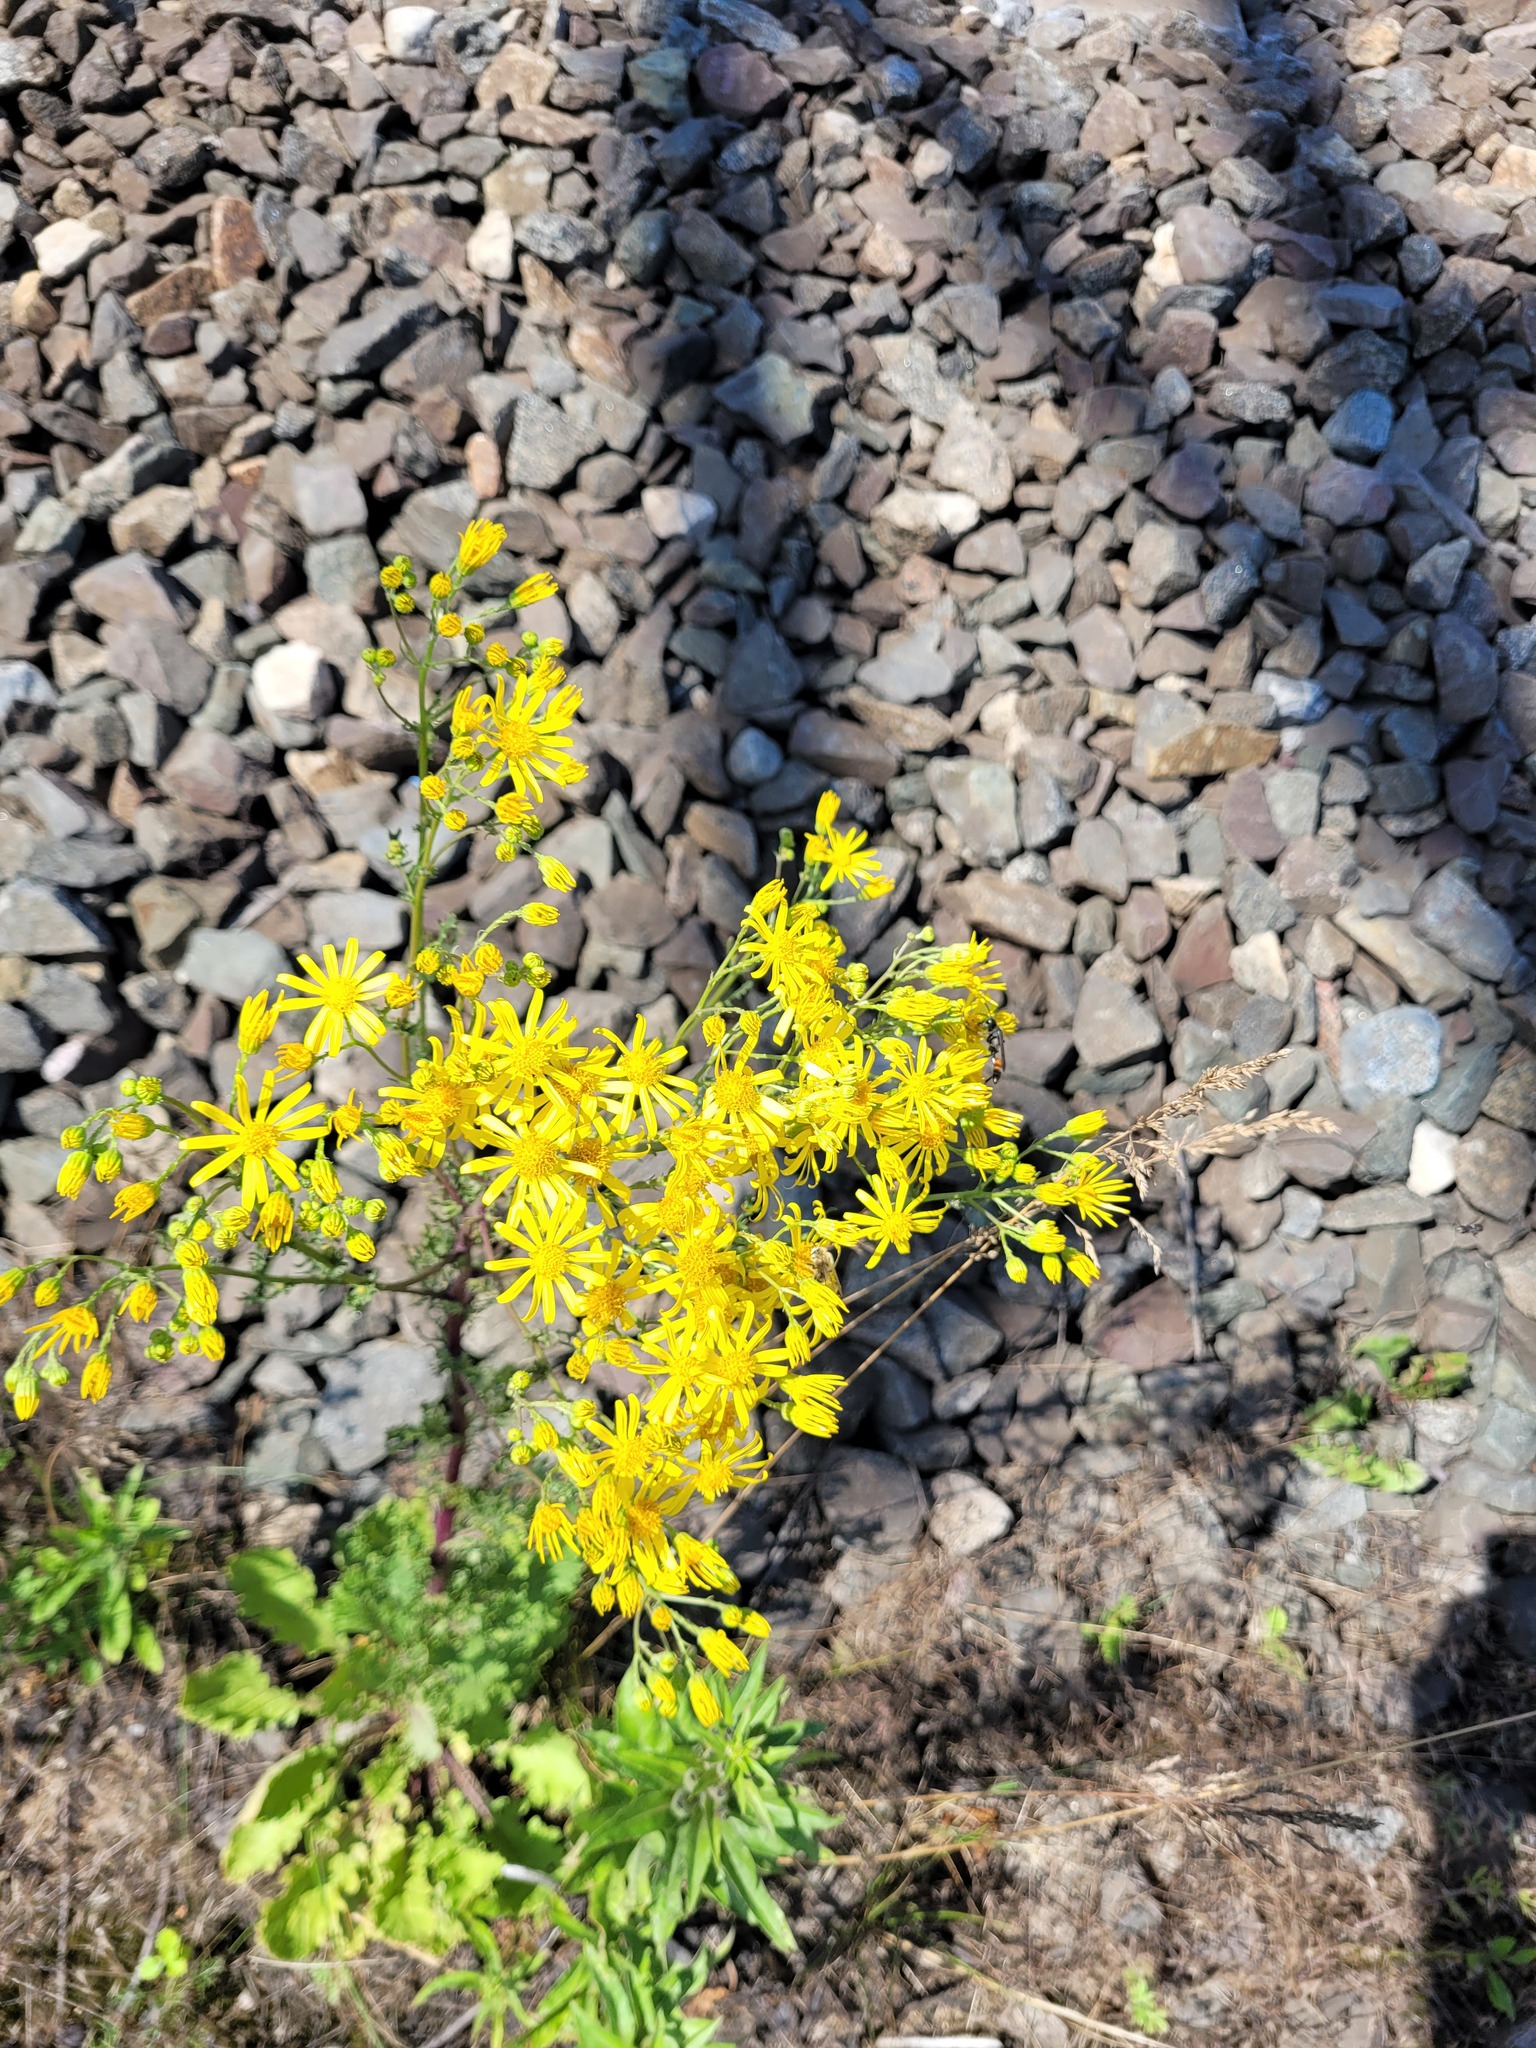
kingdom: Plantae
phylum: Tracheophyta
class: Magnoliopsida
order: Asterales
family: Asteraceae
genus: Jacobaea
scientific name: Jacobaea vulgaris
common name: Stinking willie
